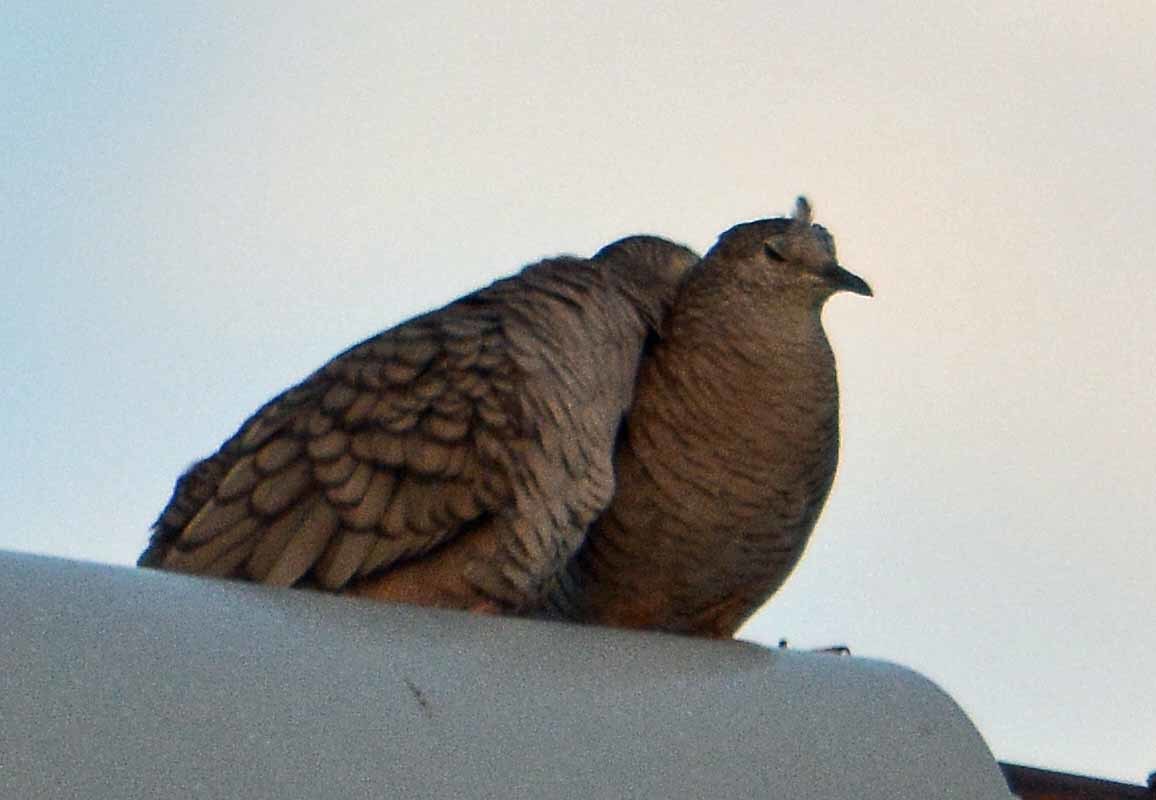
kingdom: Animalia
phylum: Chordata
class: Aves
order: Columbiformes
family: Columbidae
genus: Columbina
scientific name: Columbina inca
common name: Inca dove
